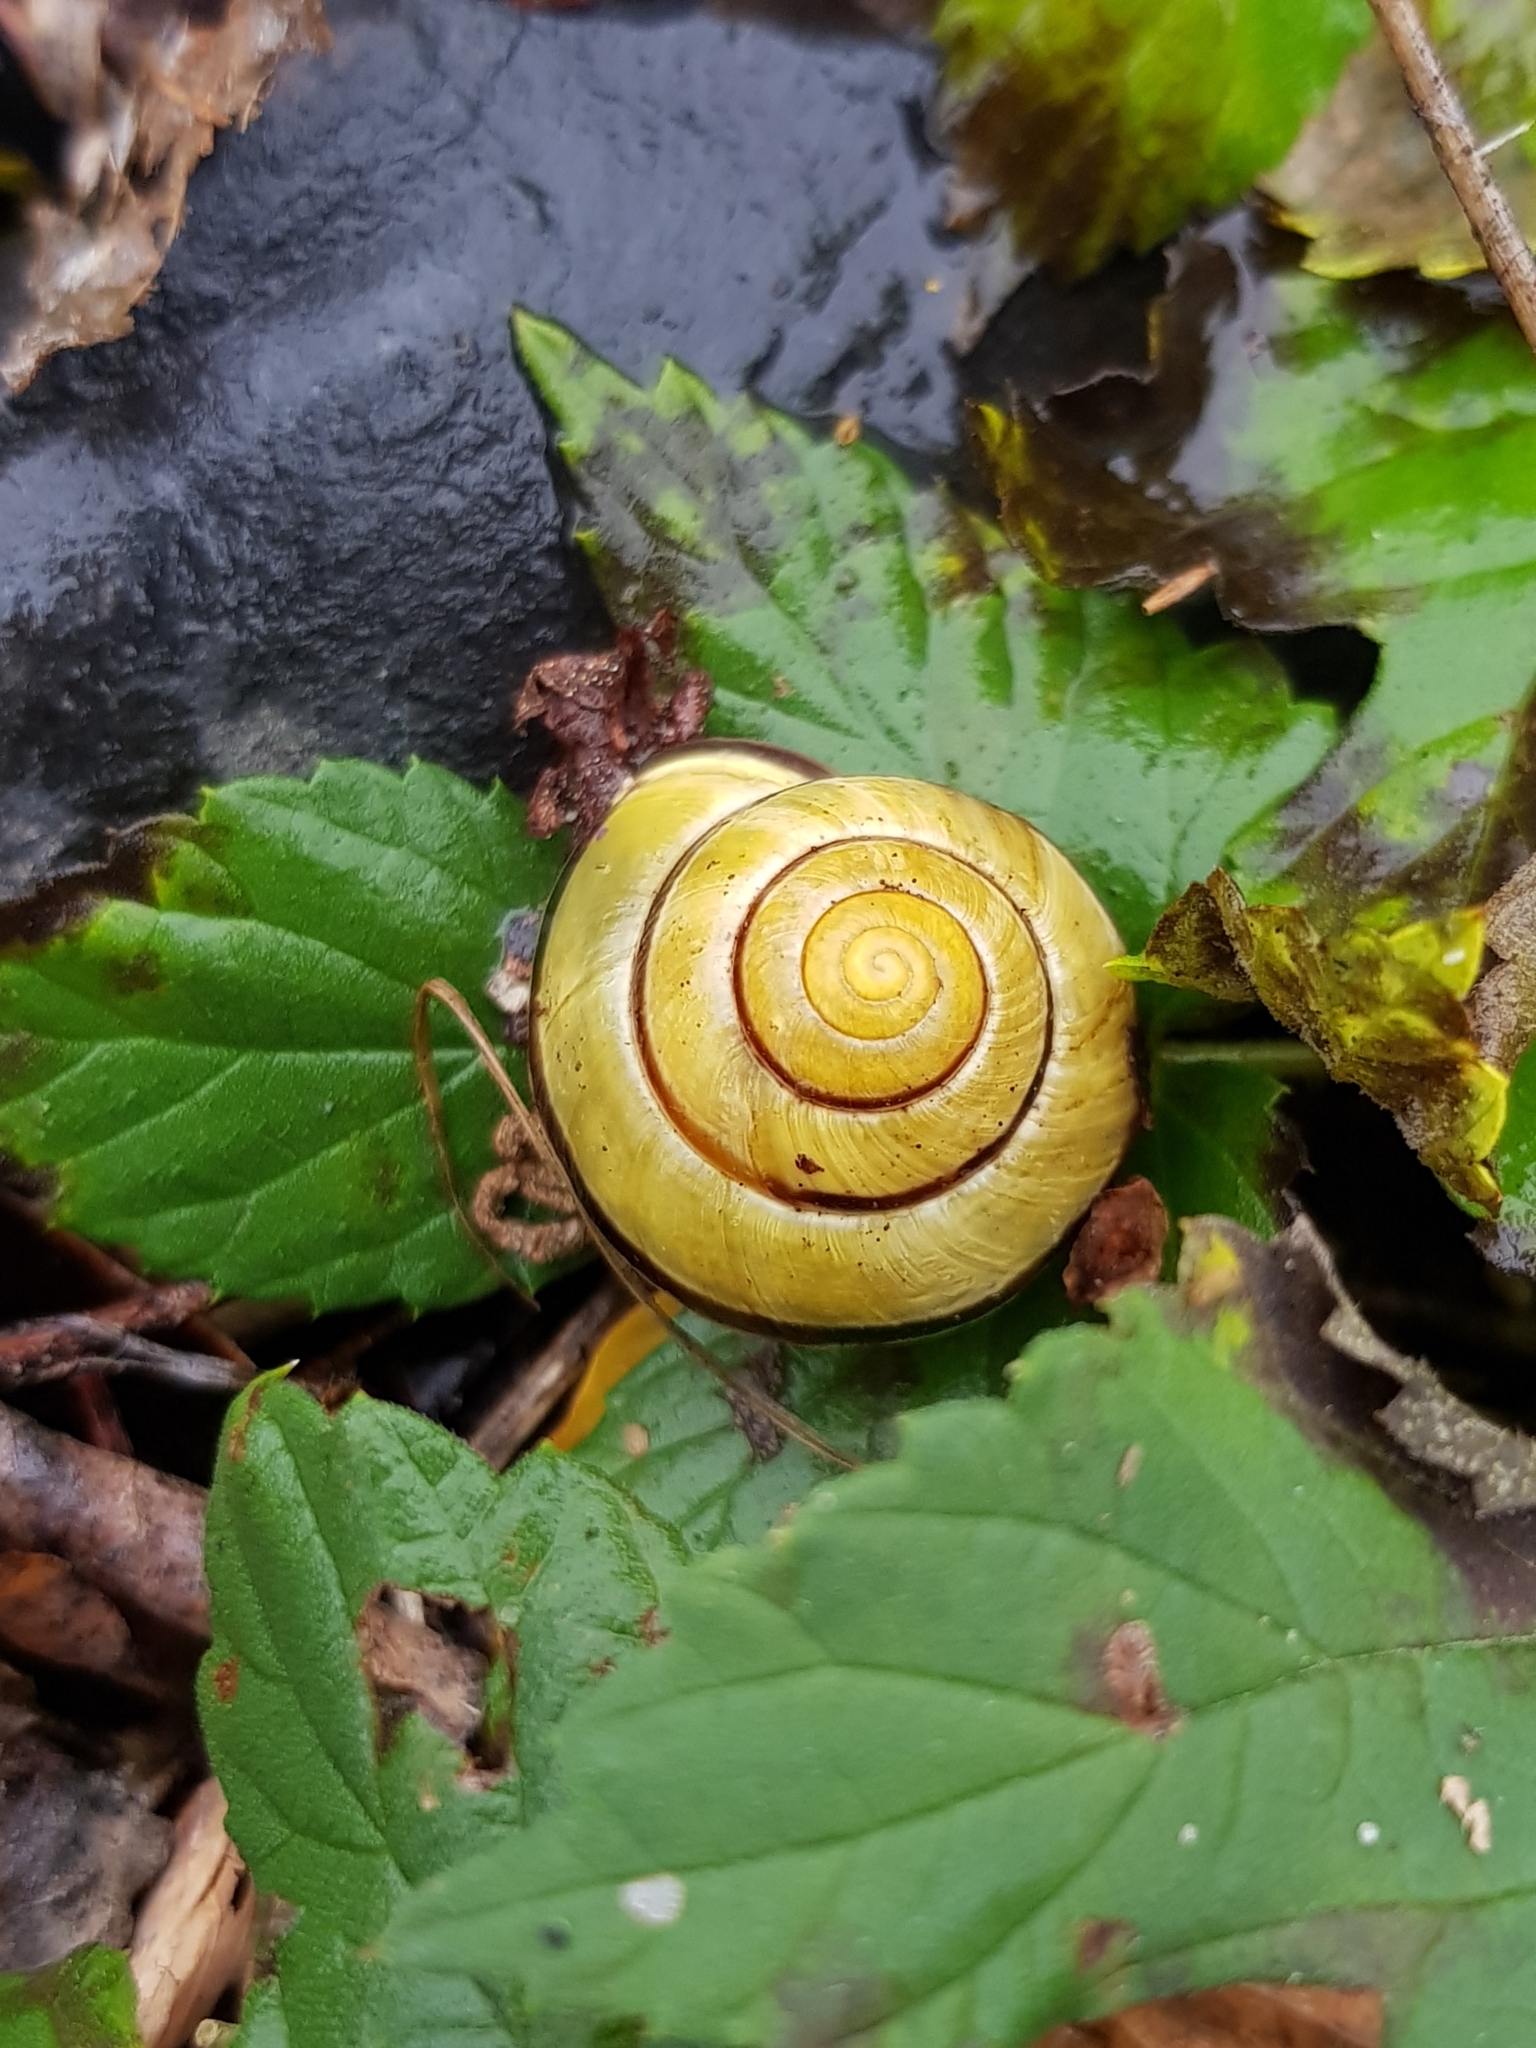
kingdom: Animalia
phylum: Mollusca
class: Gastropoda
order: Stylommatophora
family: Helicidae
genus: Cepaea
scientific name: Cepaea nemoralis
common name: Grovesnail
